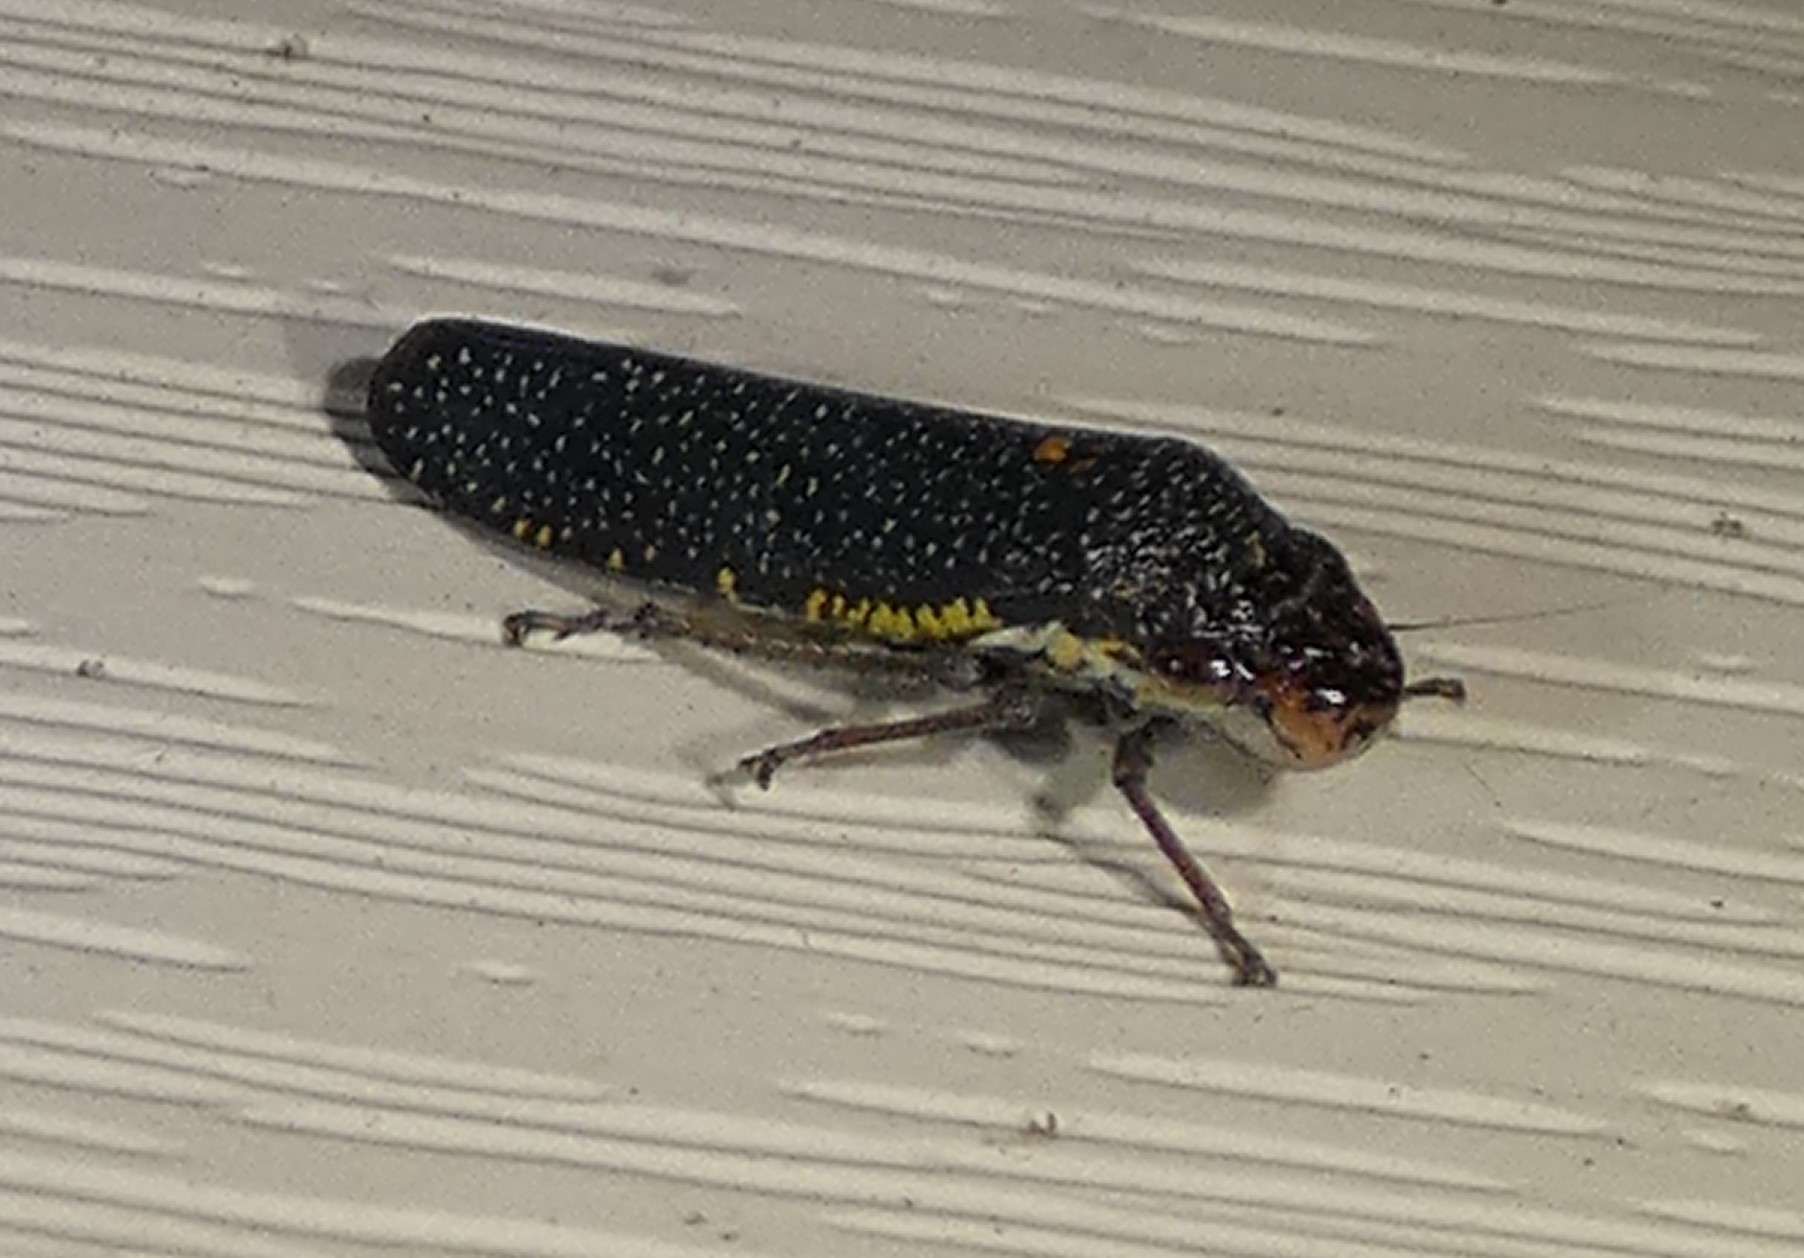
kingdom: Animalia
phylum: Arthropoda
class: Insecta
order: Hemiptera
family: Cicadellidae
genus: Paraulacizes
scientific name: Paraulacizes irrorata
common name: Speckled sharpshooter
